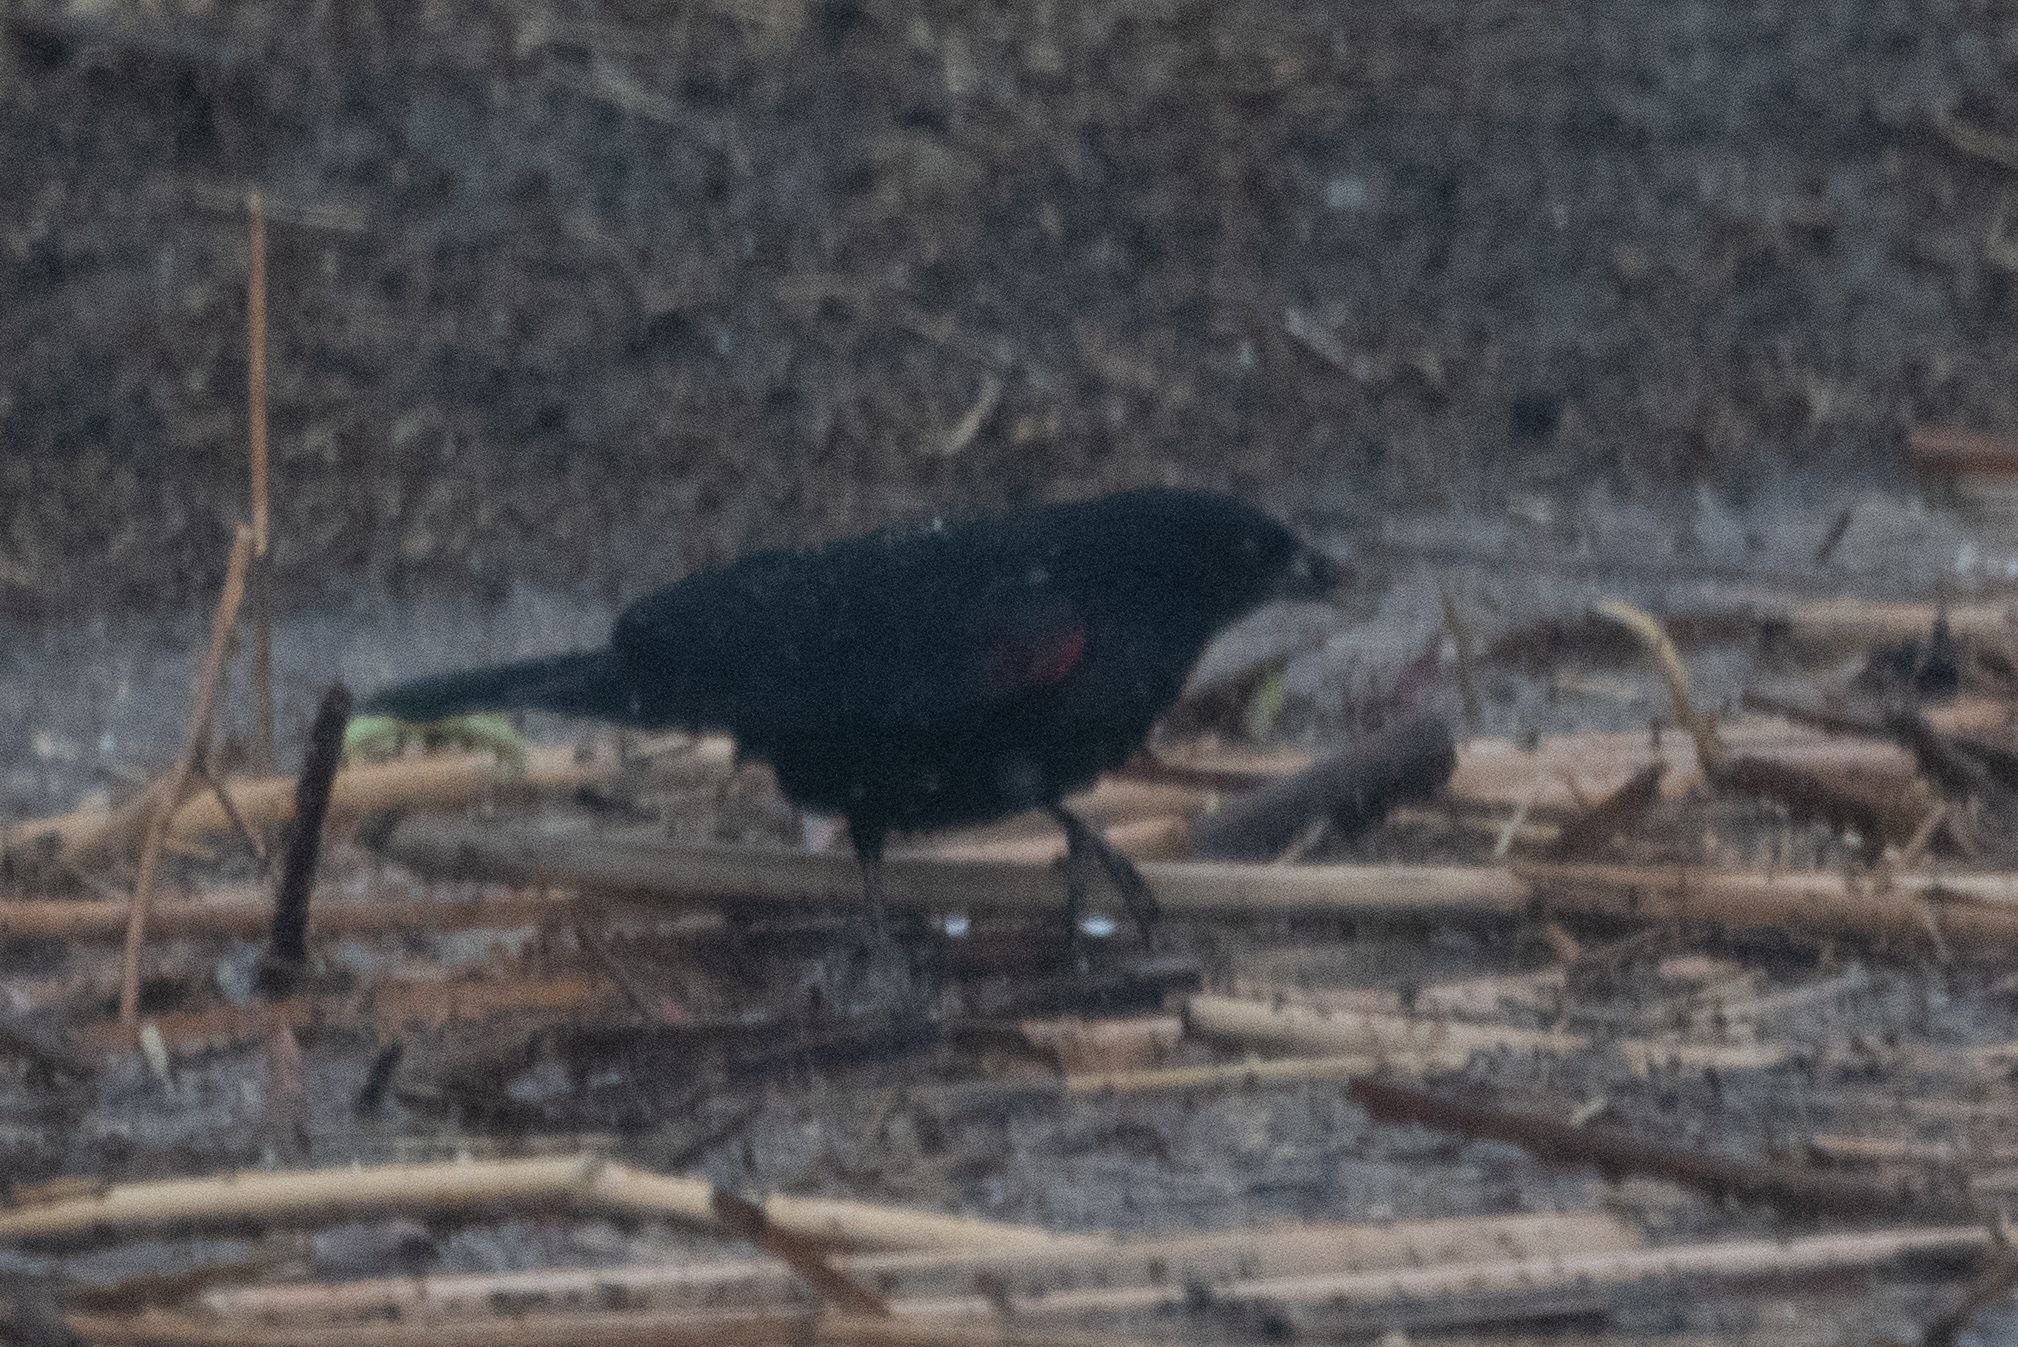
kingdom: Animalia
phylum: Chordata
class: Aves
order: Passeriformes
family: Icteridae
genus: Agelaius
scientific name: Agelaius phoeniceus
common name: Red-winged blackbird
